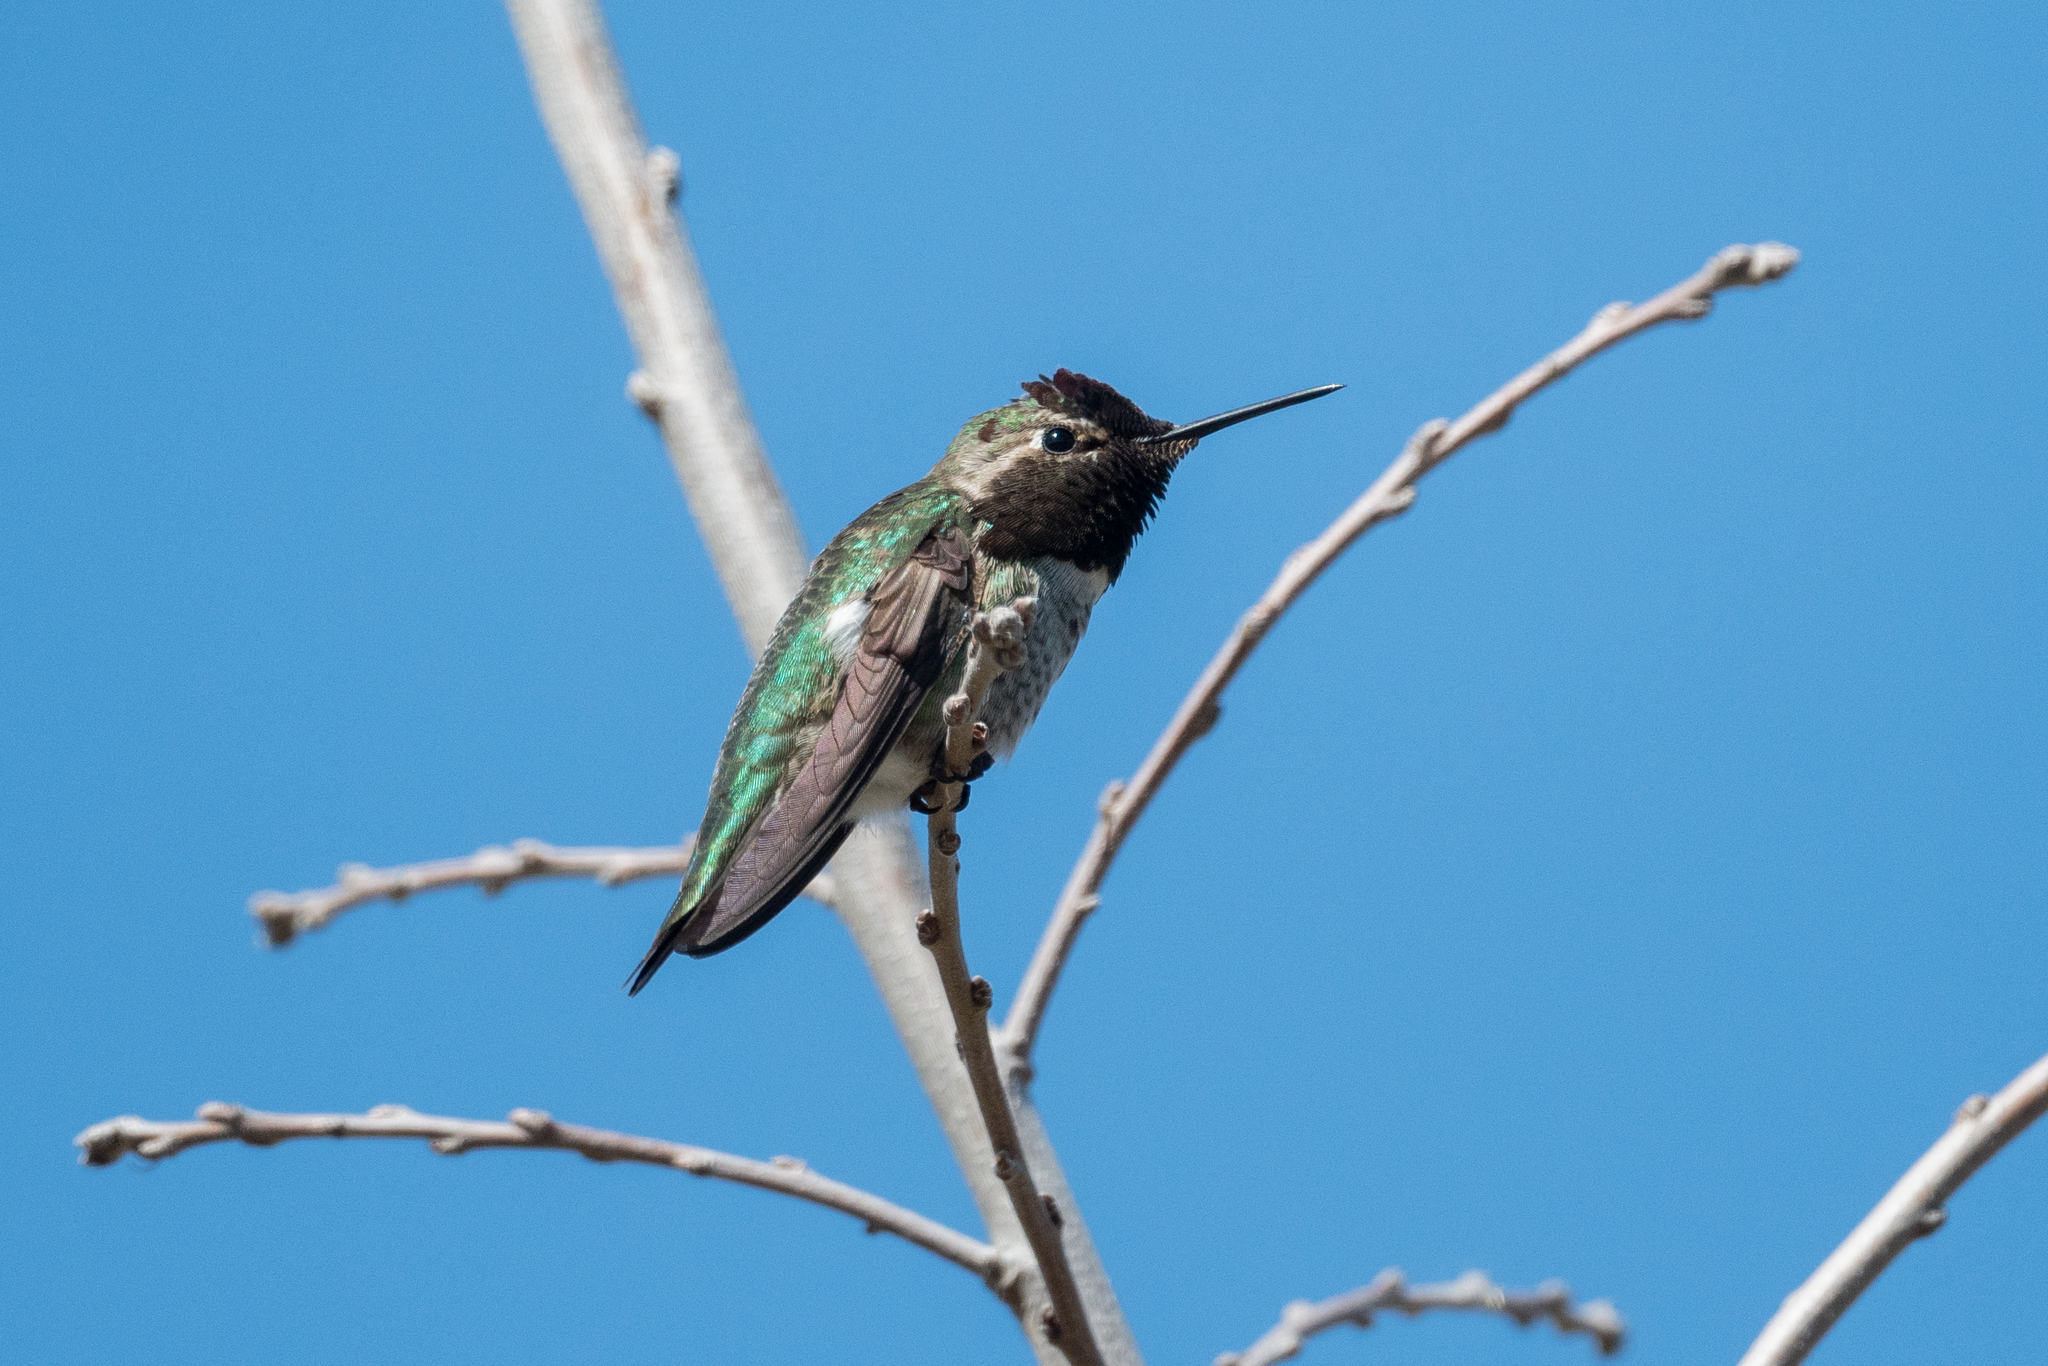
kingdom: Animalia
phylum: Chordata
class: Aves
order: Apodiformes
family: Trochilidae
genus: Calypte
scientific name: Calypte anna
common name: Anna's hummingbird
